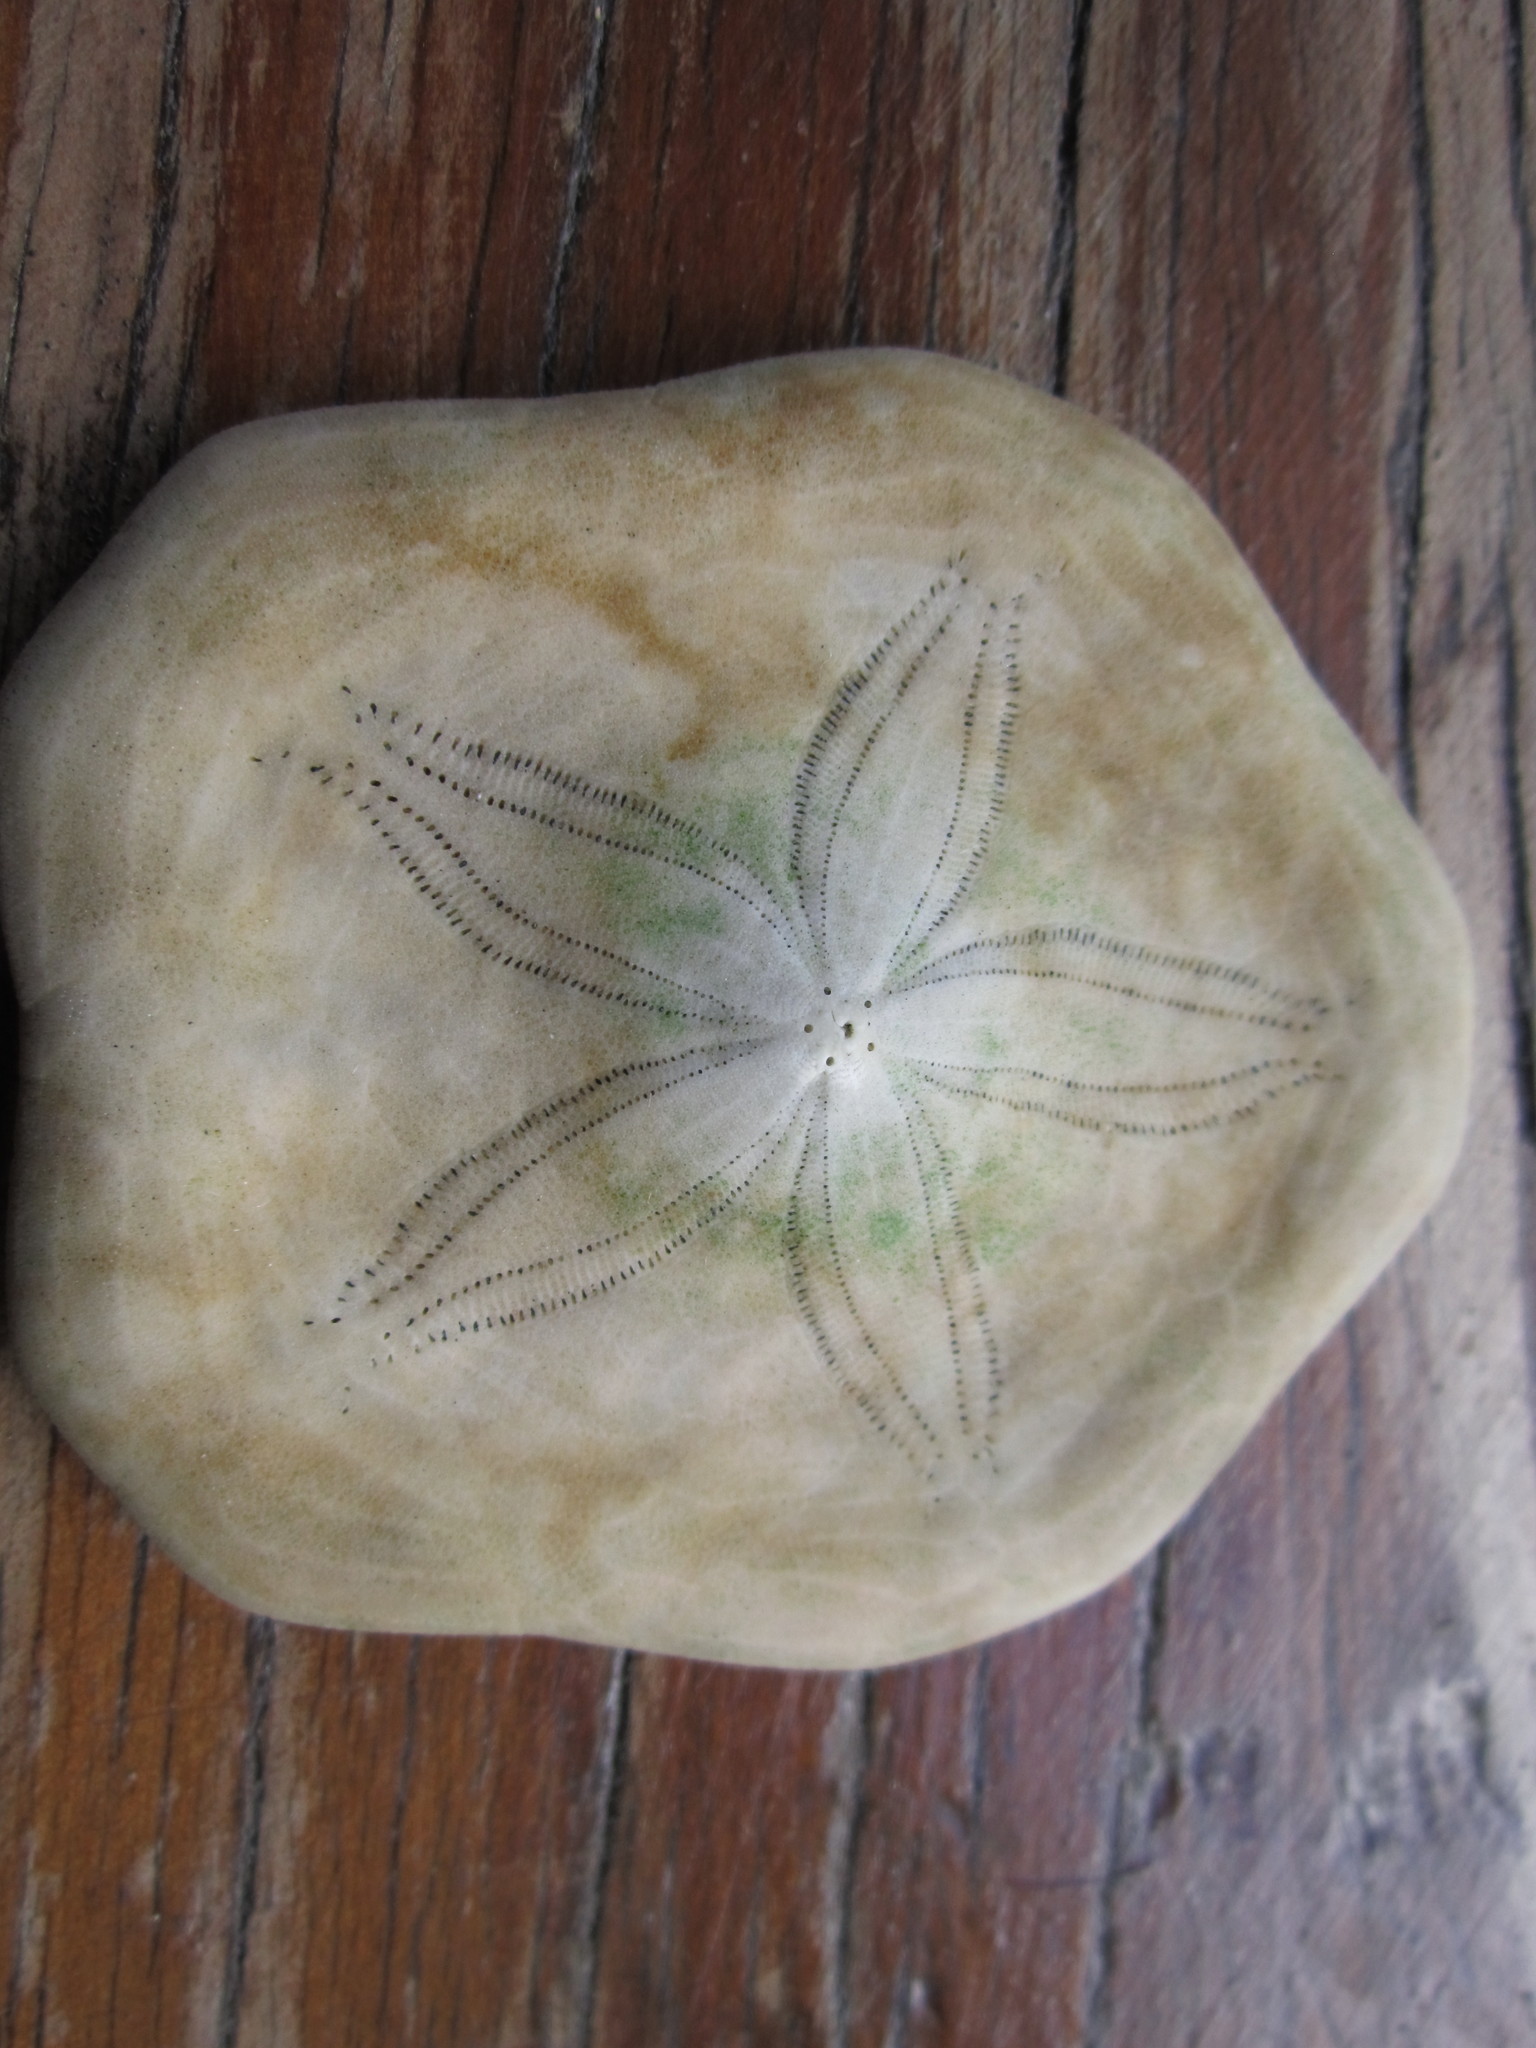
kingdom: Animalia
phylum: Echinodermata
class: Echinoidea
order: Echinolampadacea
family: Laganidae
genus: Jacksonaster
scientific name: Jacksonaster depressus
